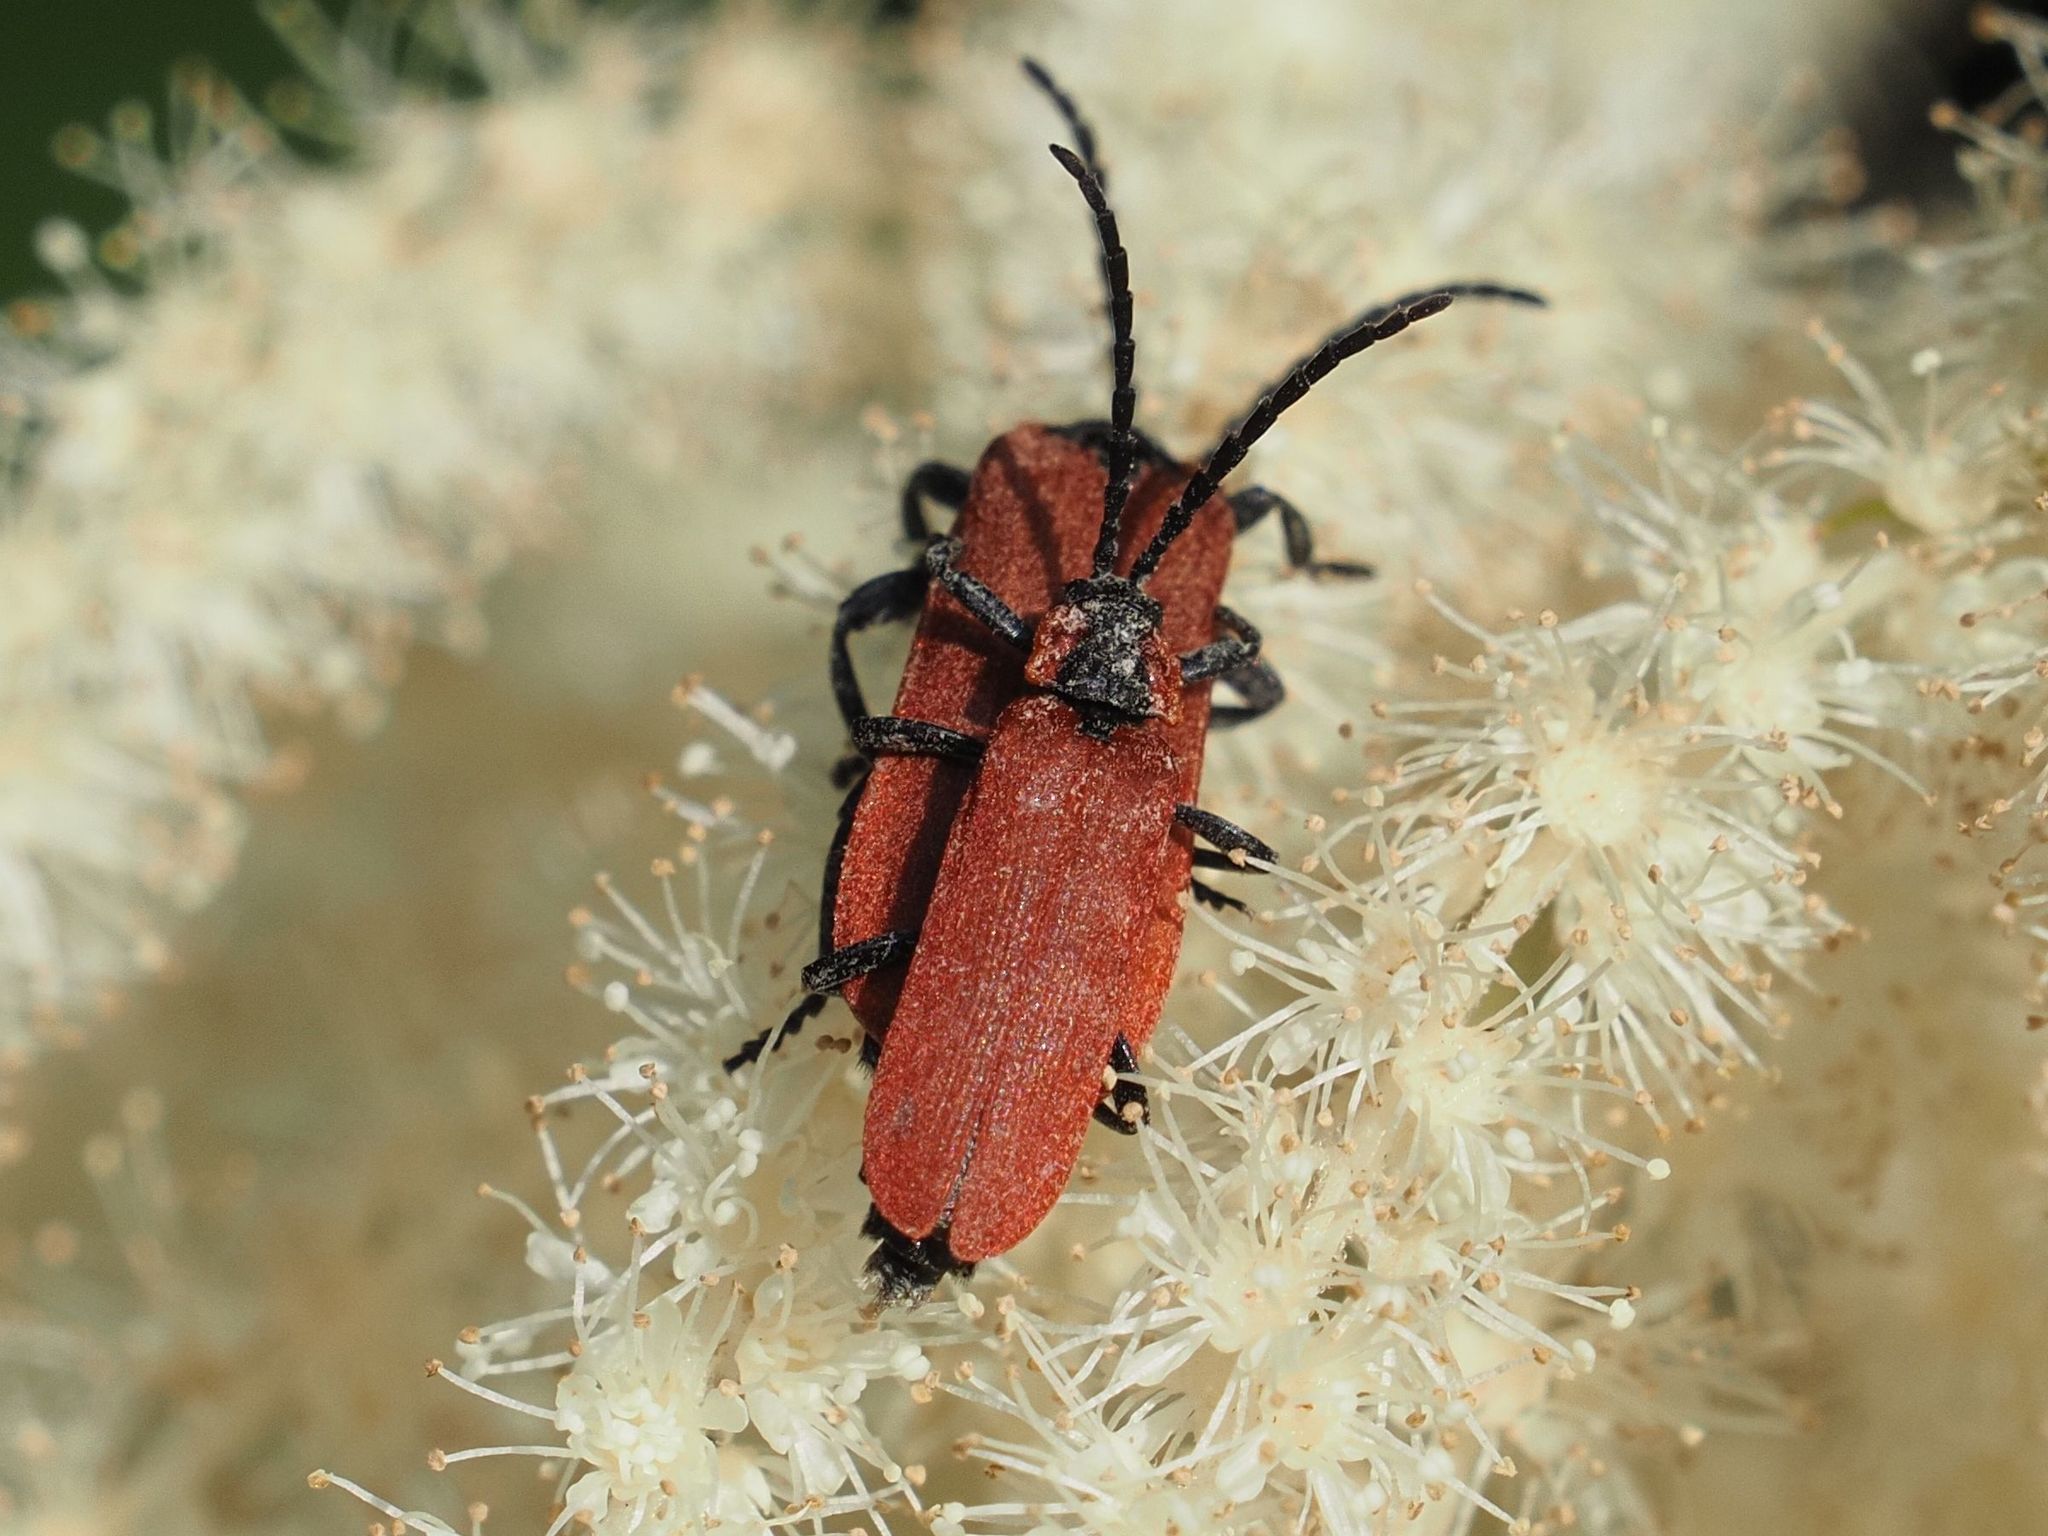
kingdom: Animalia
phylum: Arthropoda
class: Insecta
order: Coleoptera
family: Lycidae
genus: Lygistopterus
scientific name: Lygistopterus sanguineus
